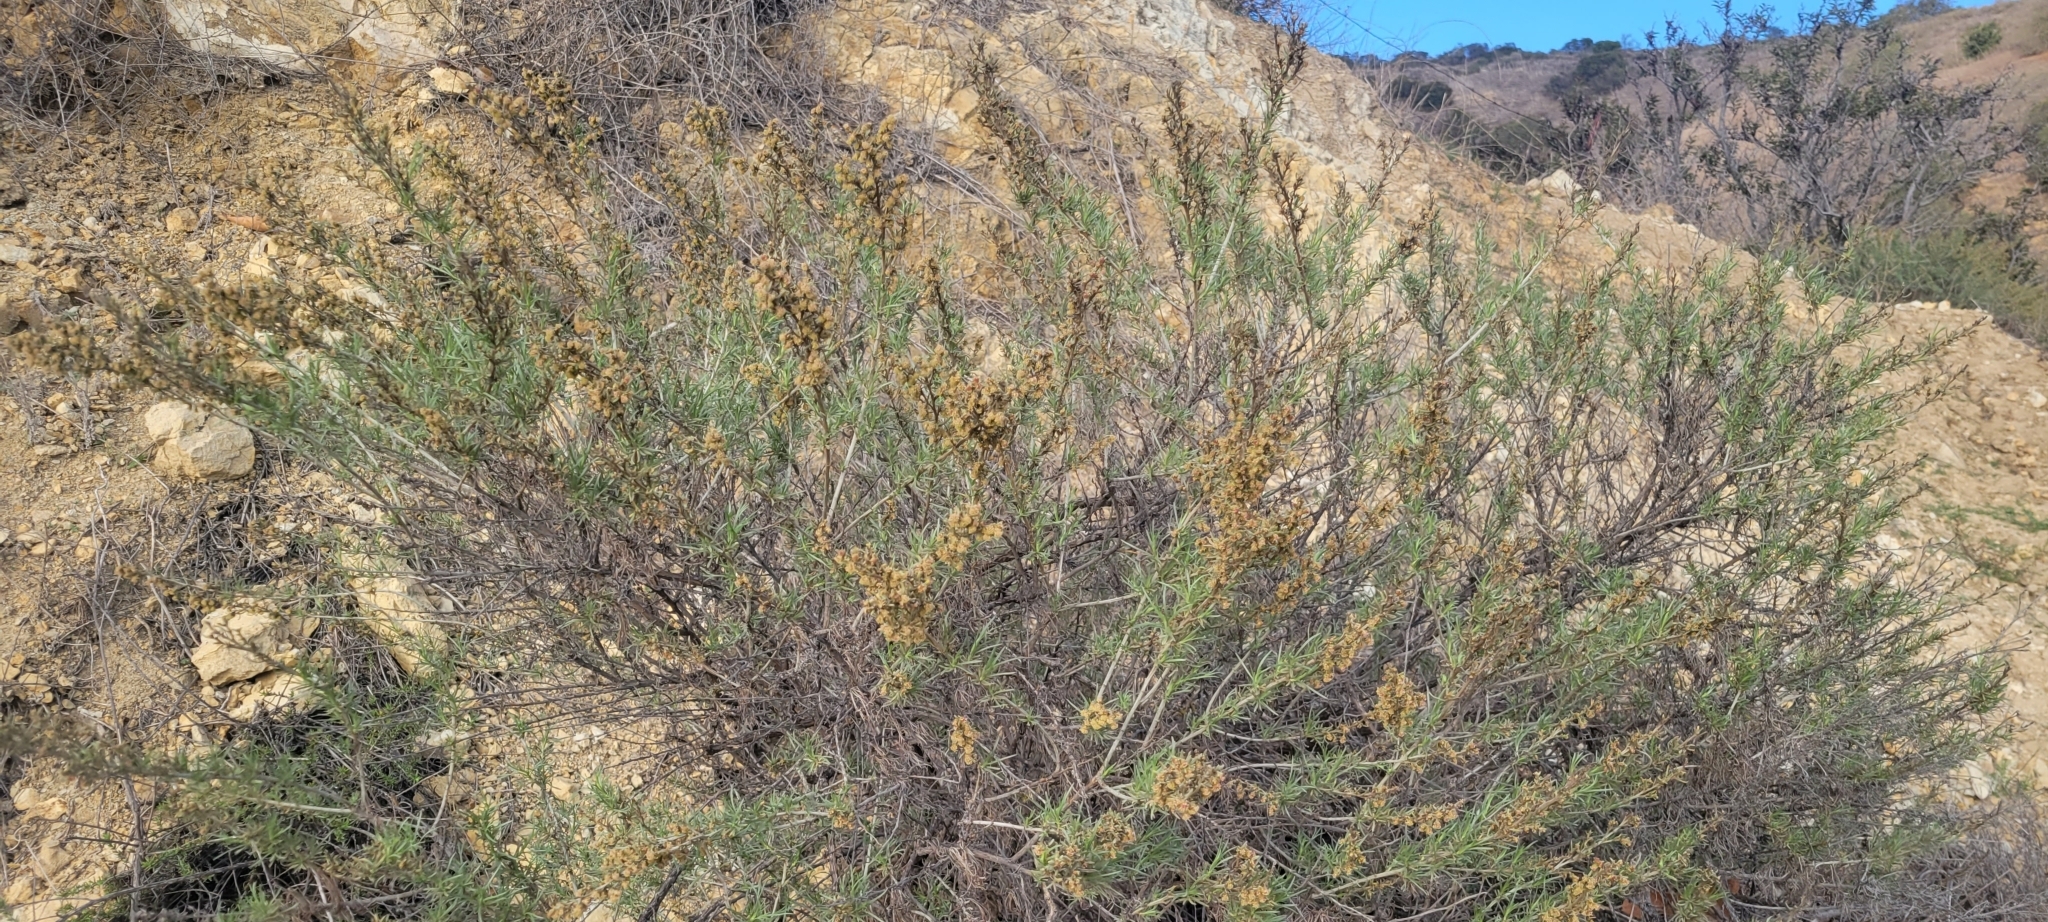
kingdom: Plantae
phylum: Tracheophyta
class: Magnoliopsida
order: Asterales
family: Asteraceae
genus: Artemisia
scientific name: Artemisia californica
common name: California sagebrush
